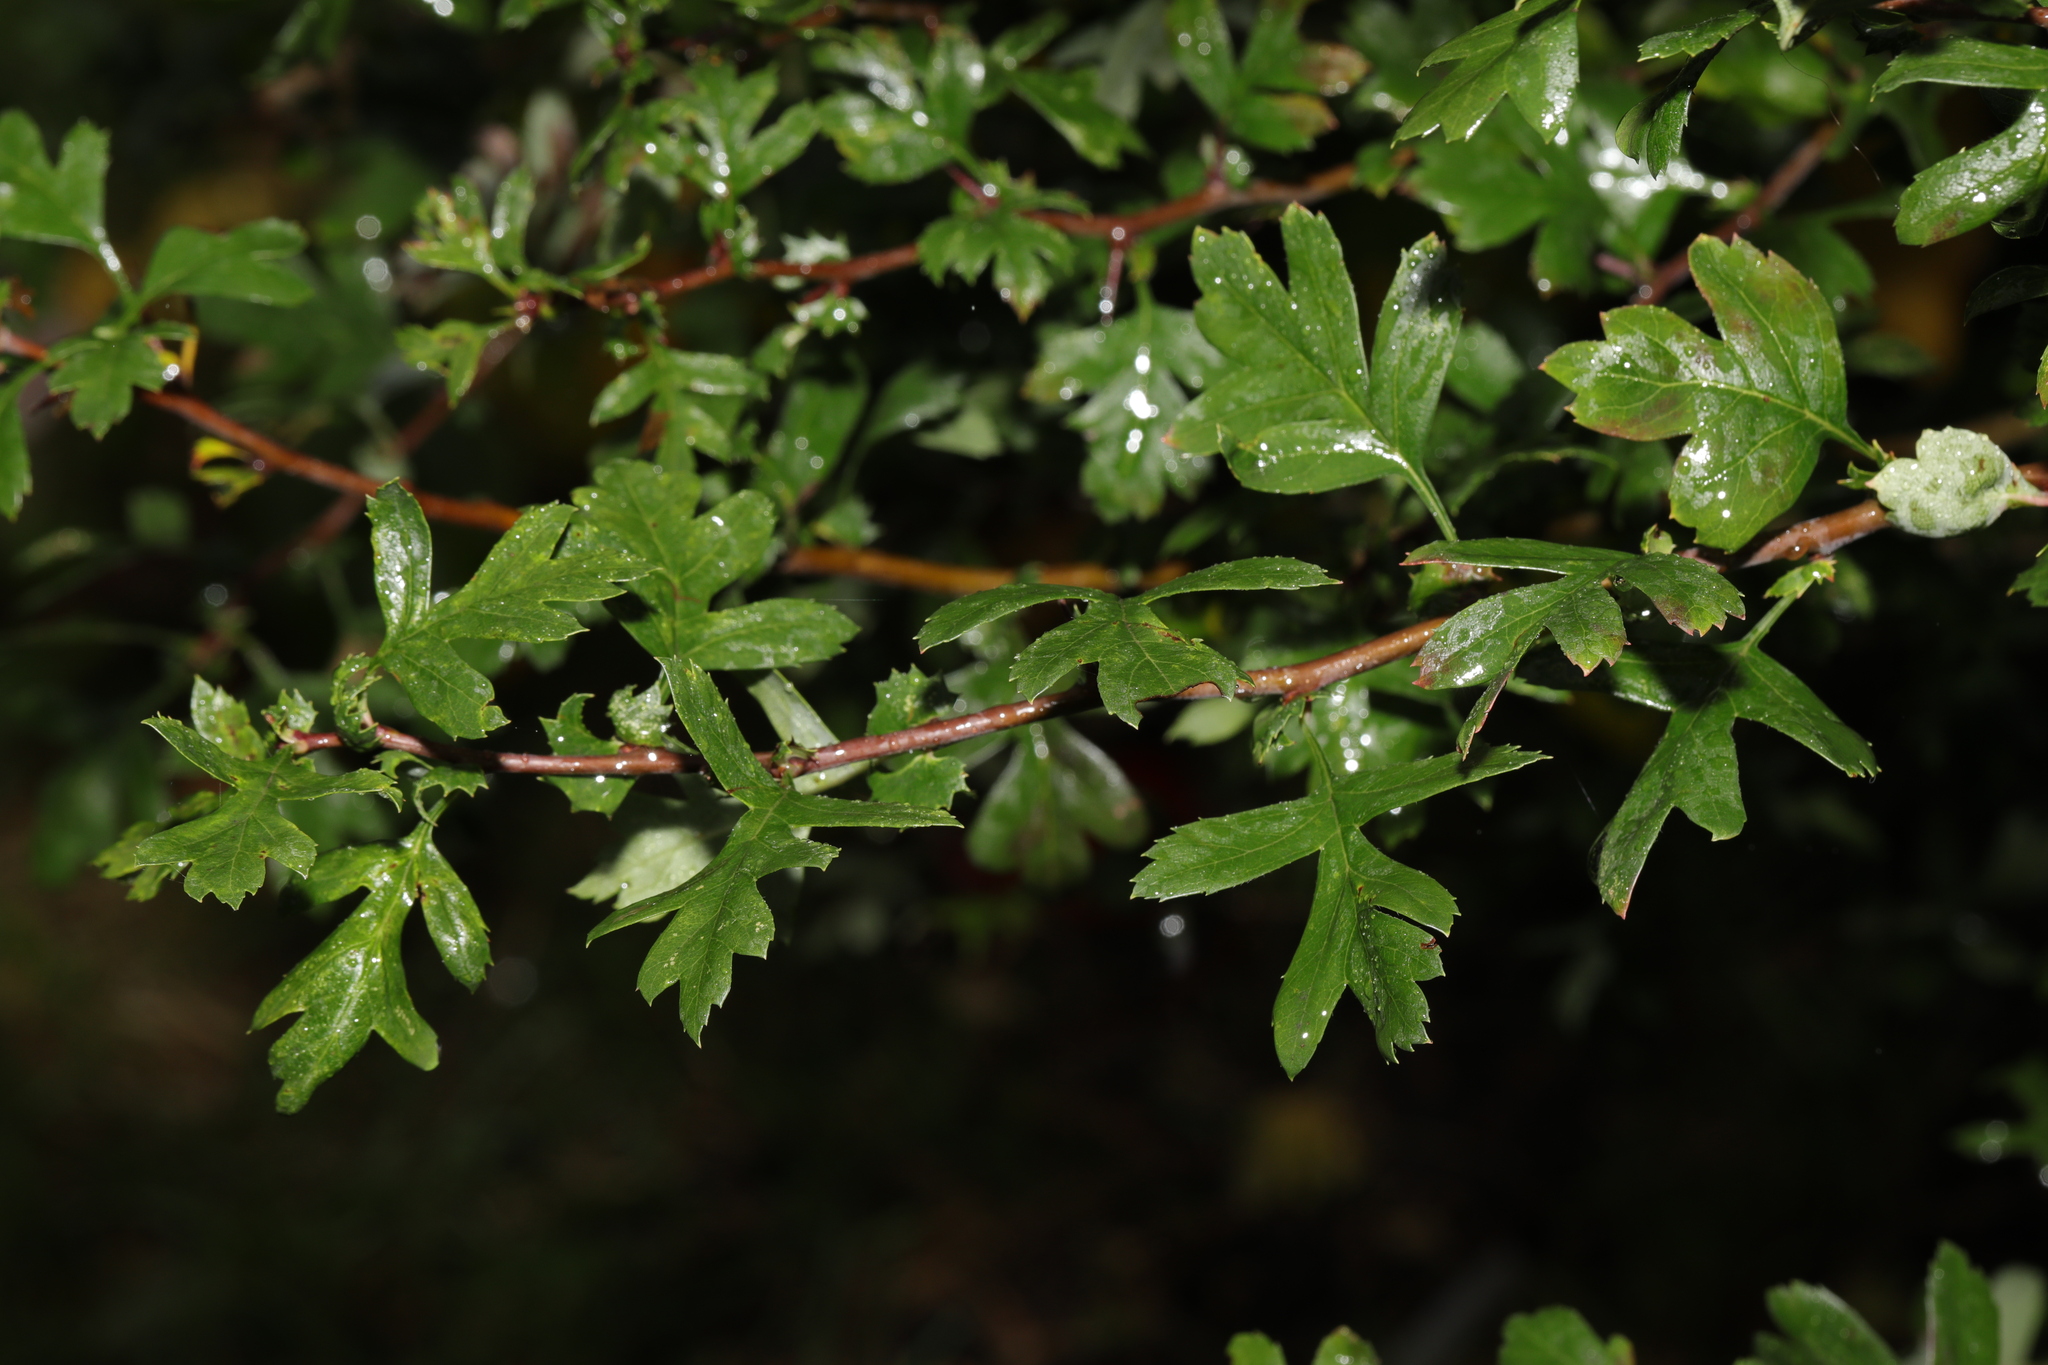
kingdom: Plantae
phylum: Tracheophyta
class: Magnoliopsida
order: Rosales
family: Rosaceae
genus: Crataegus
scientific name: Crataegus monogyna
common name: Hawthorn
